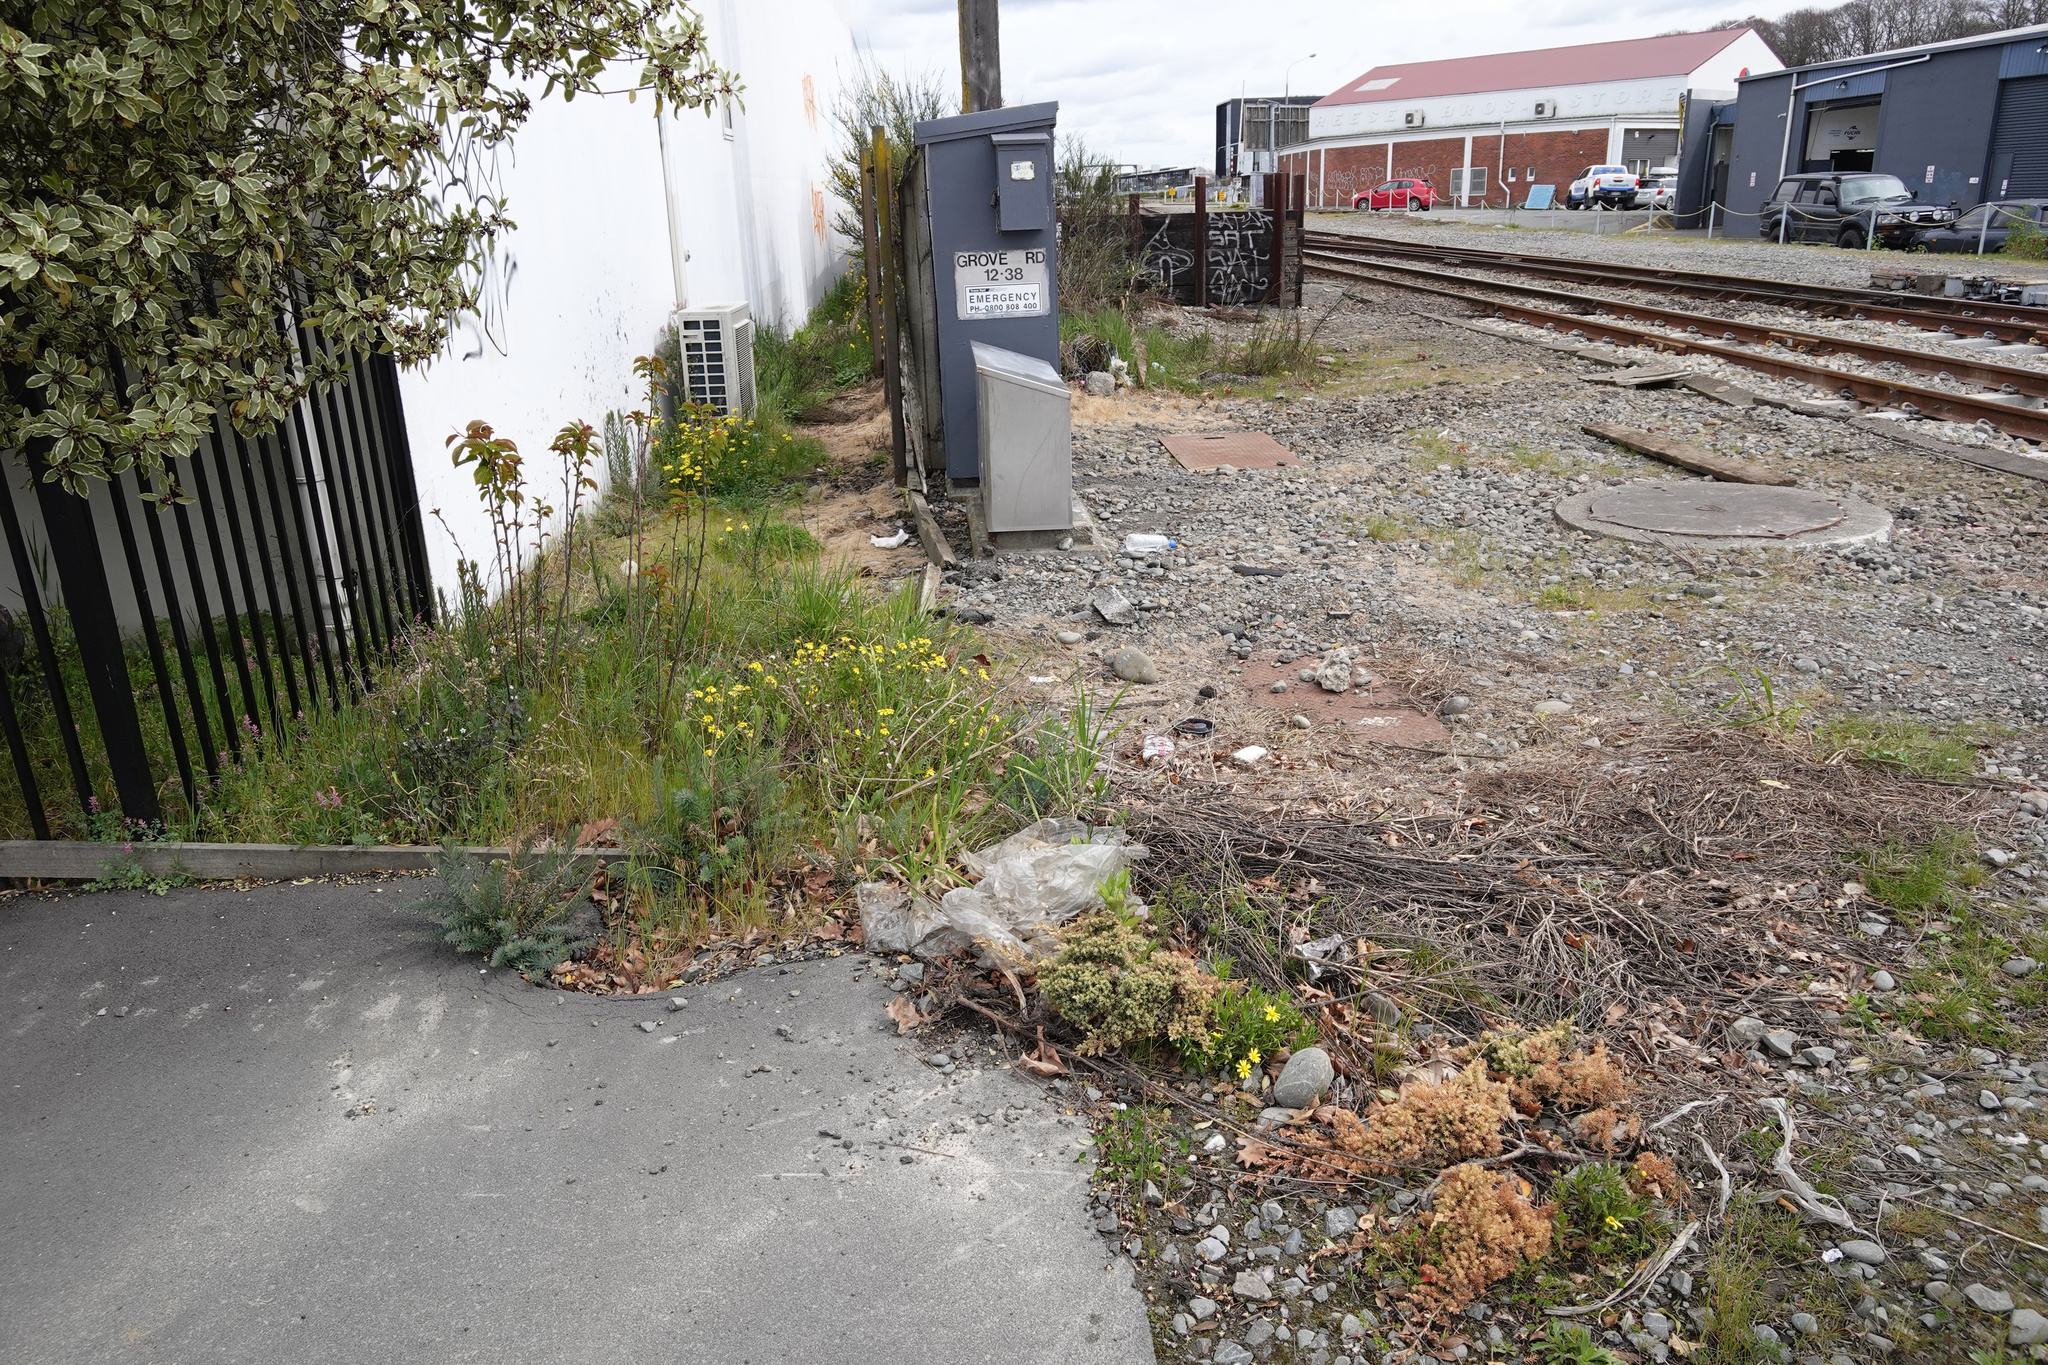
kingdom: Plantae
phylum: Tracheophyta
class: Magnoliopsida
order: Asterales
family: Asteraceae
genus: Senecio
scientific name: Senecio skirrhodon
